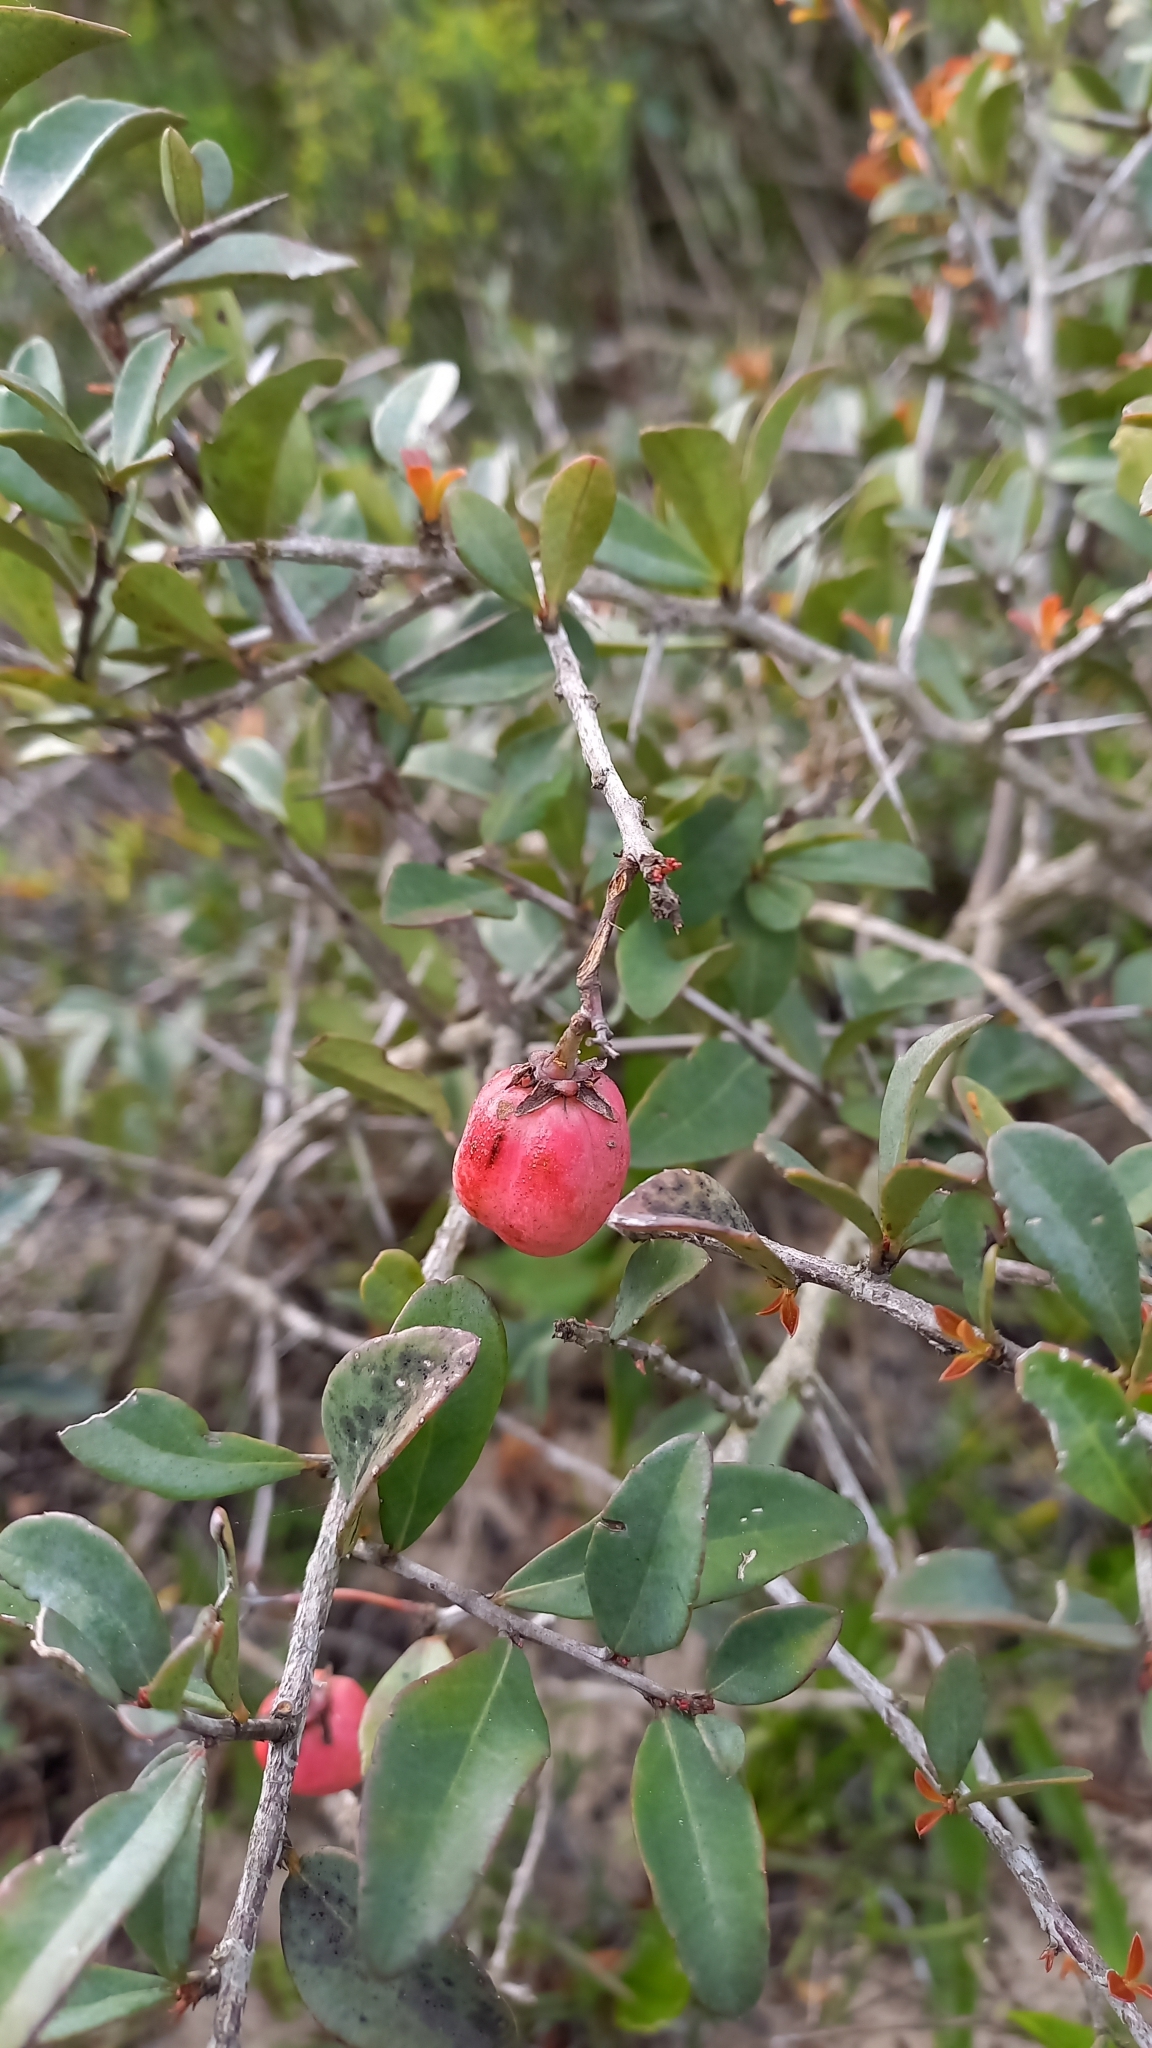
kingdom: Plantae
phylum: Tracheophyta
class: Magnoliopsida
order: Celastrales
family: Celastraceae
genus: Putterlickia
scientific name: Putterlickia pyracantha
